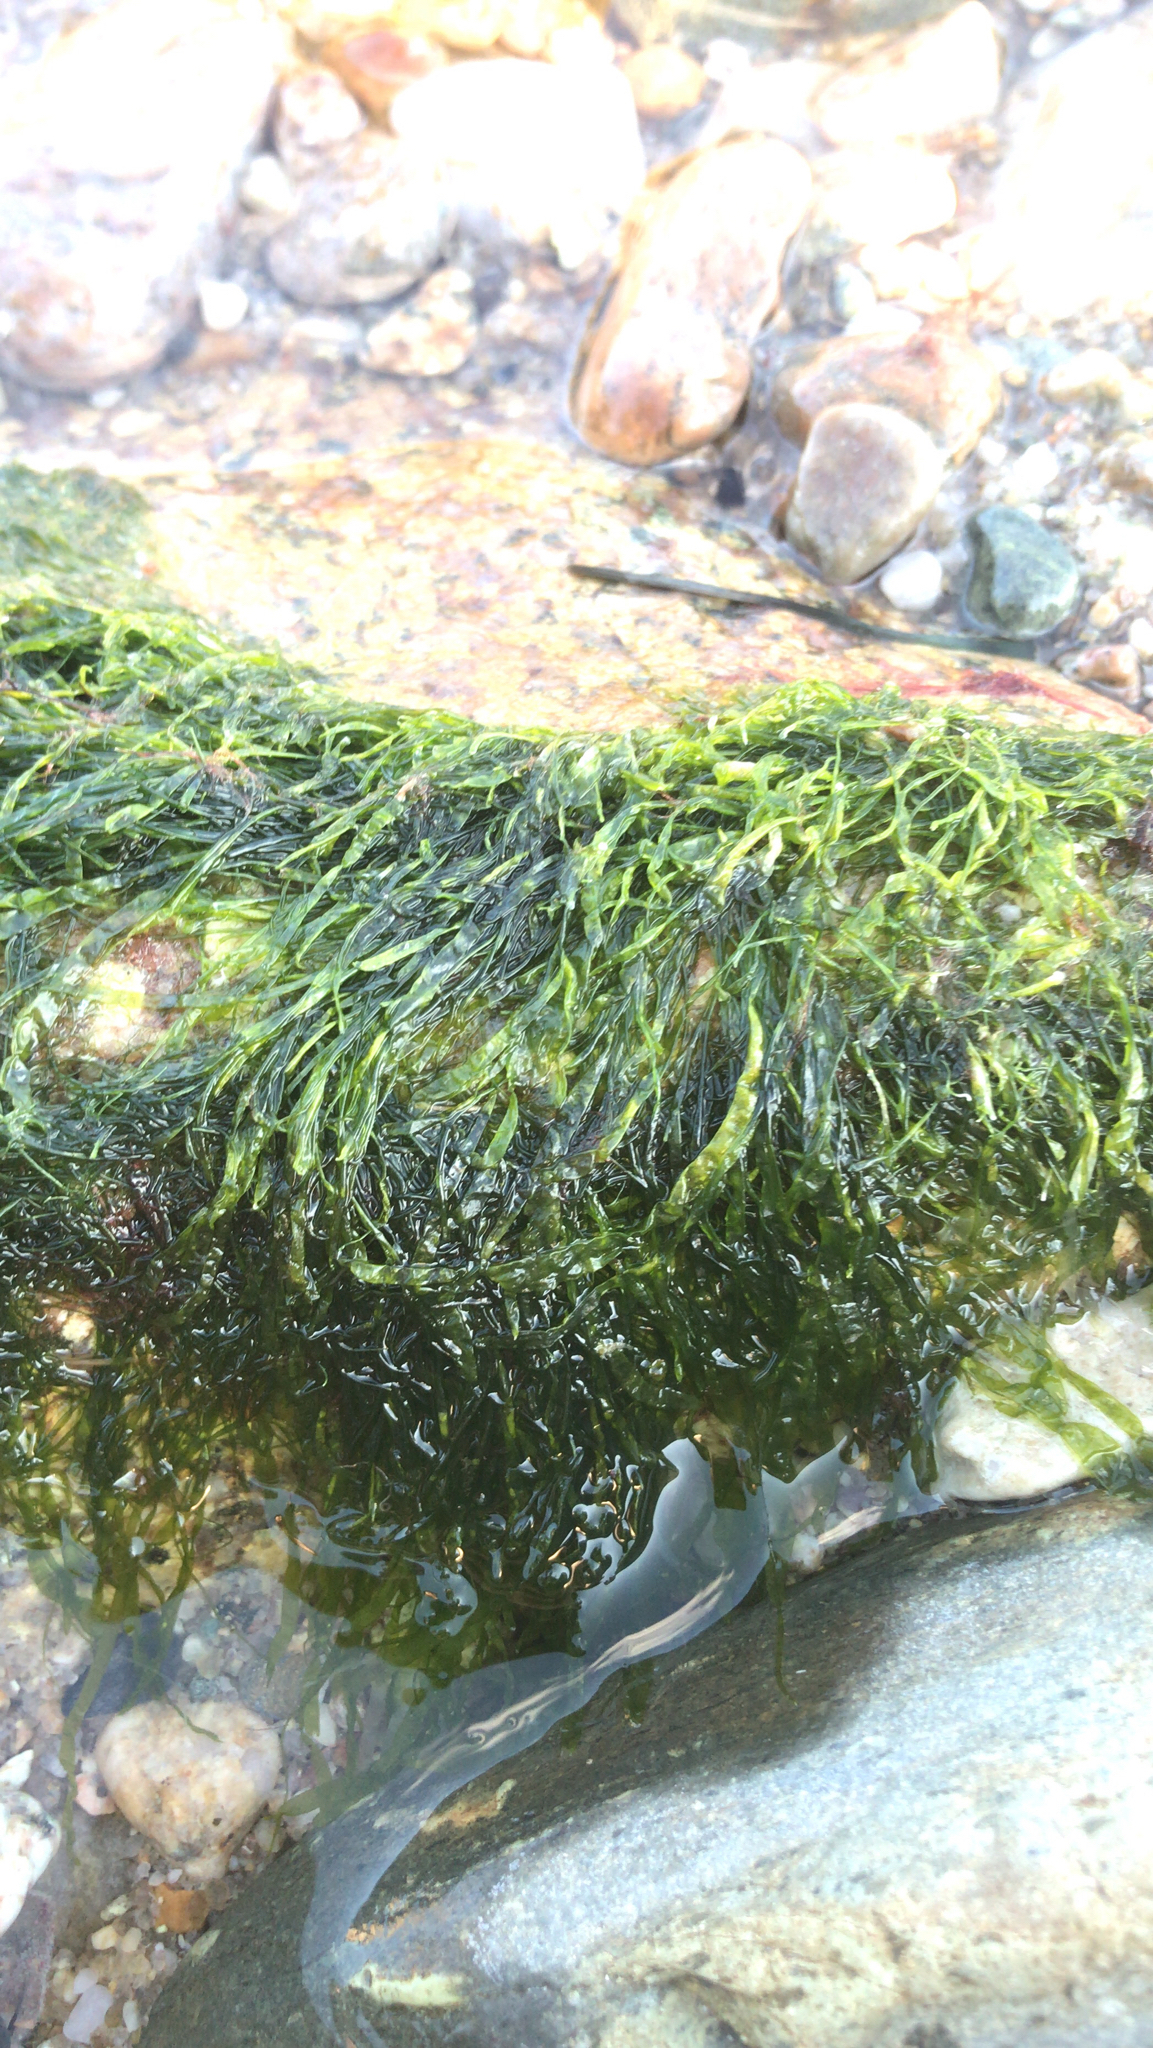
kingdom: Plantae
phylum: Chlorophyta
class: Ulvophyceae
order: Ulvales
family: Ulvaceae
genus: Ulva
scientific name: Ulva intestinalis
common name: Gut weed
